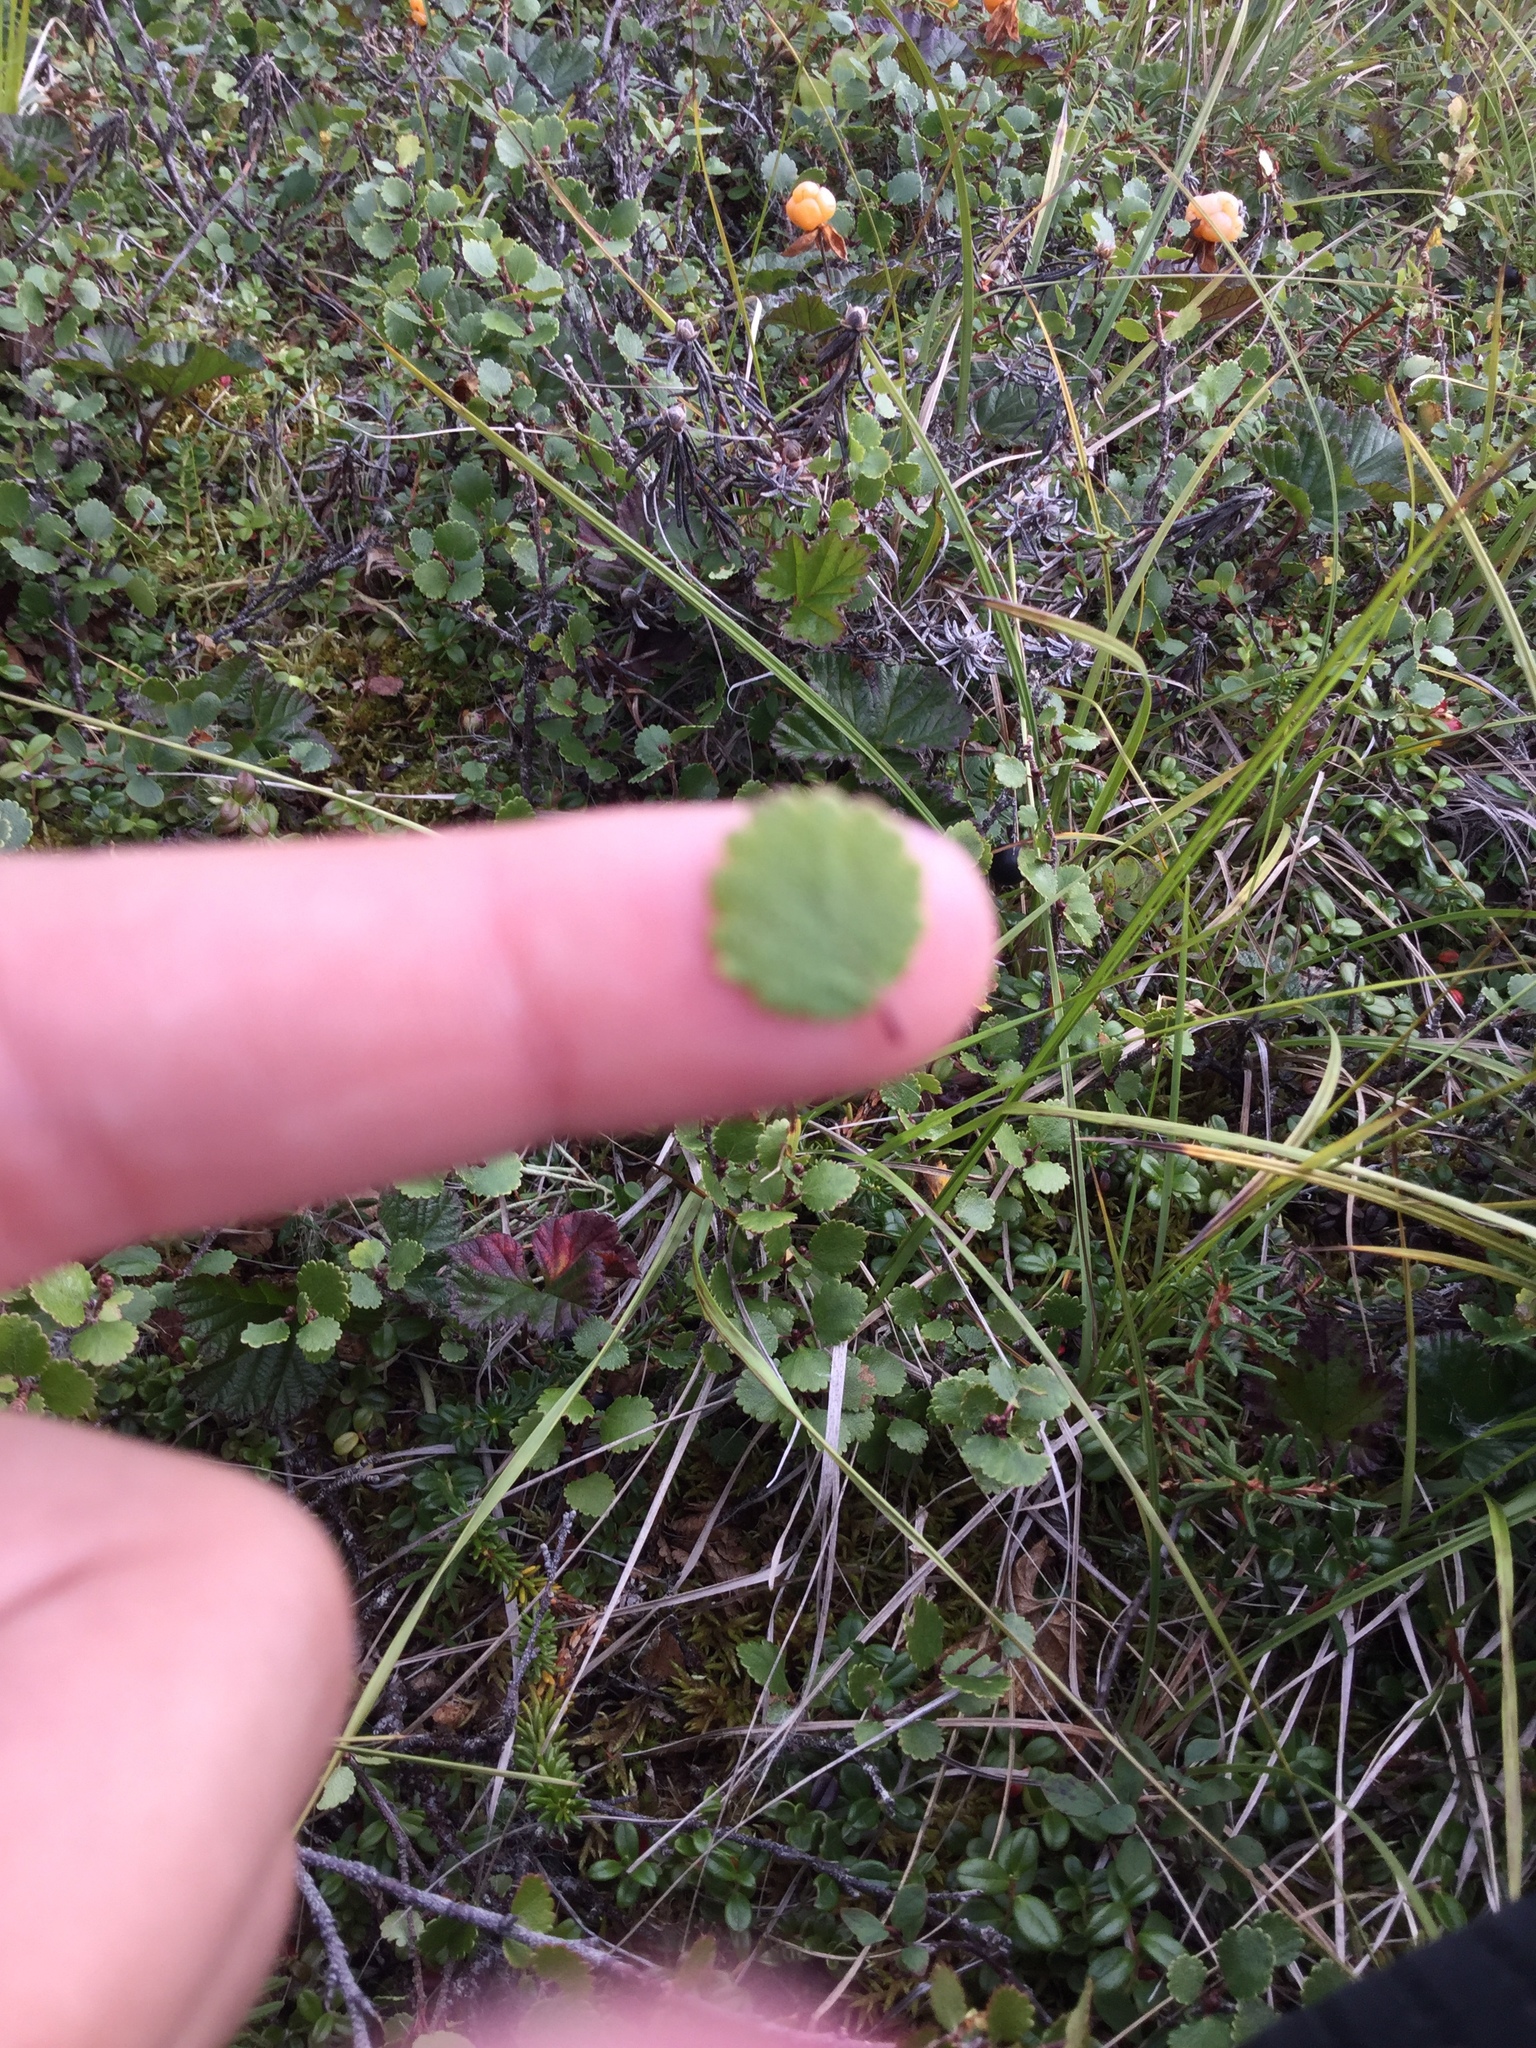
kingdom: Plantae
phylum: Tracheophyta
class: Magnoliopsida
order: Fagales
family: Betulaceae
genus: Betula
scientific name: Betula nana
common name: Arctic dwarf birch
